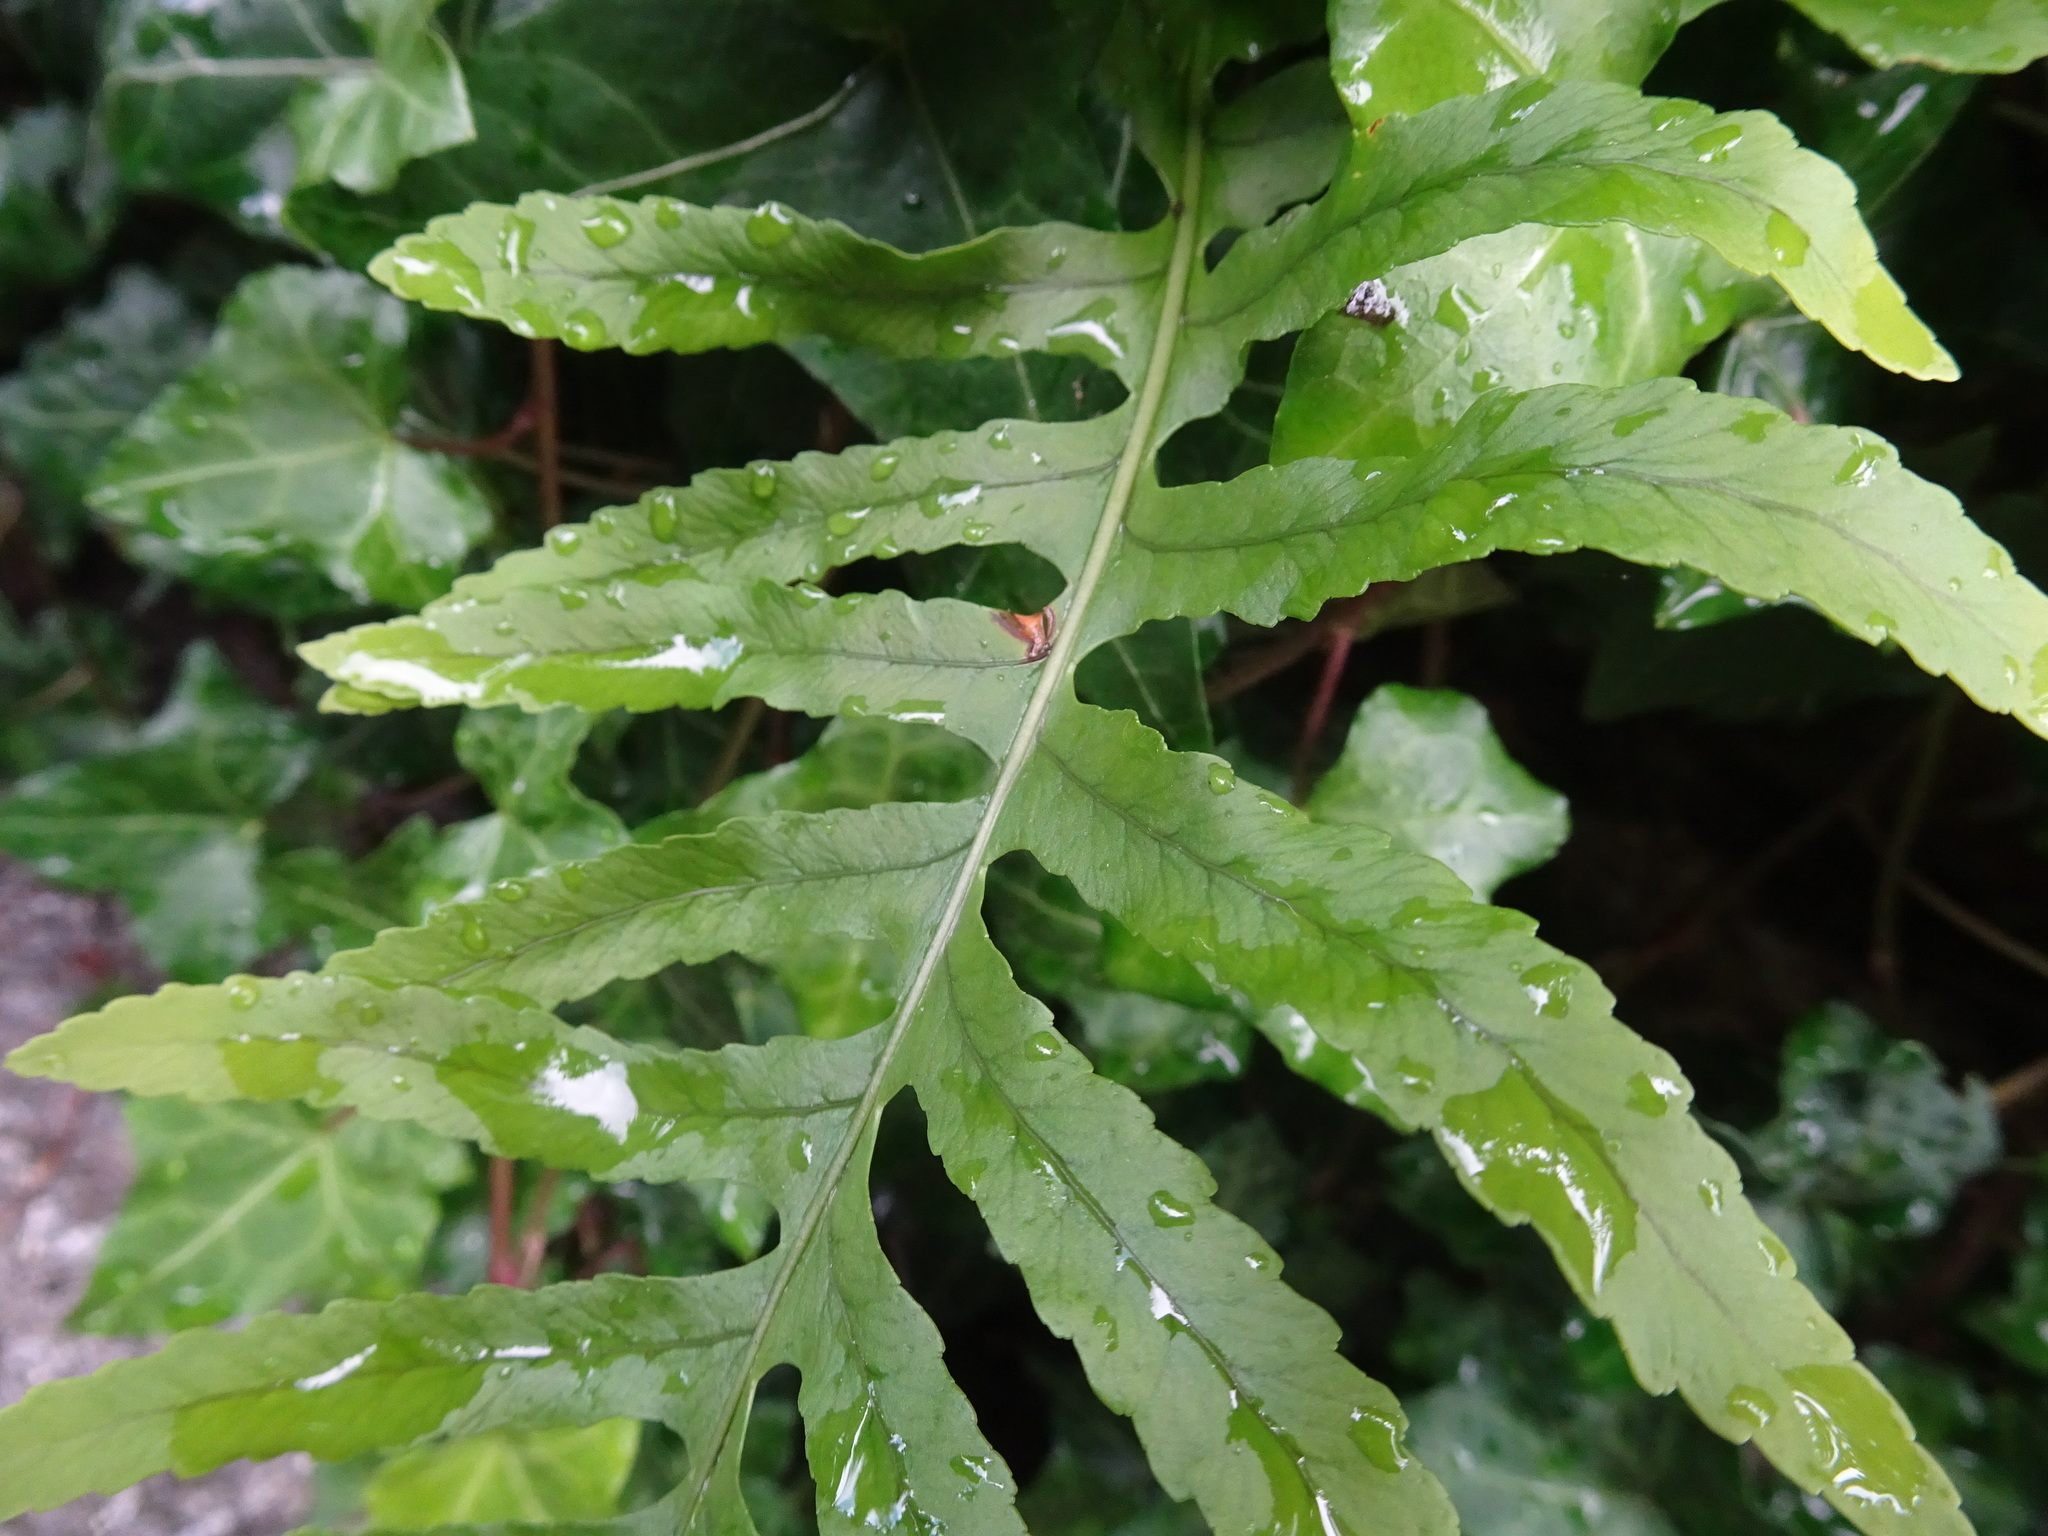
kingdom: Plantae
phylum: Tracheophyta
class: Polypodiopsida
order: Polypodiales
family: Polypodiaceae
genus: Polypodium
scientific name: Polypodium vulgare
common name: Common polypody
